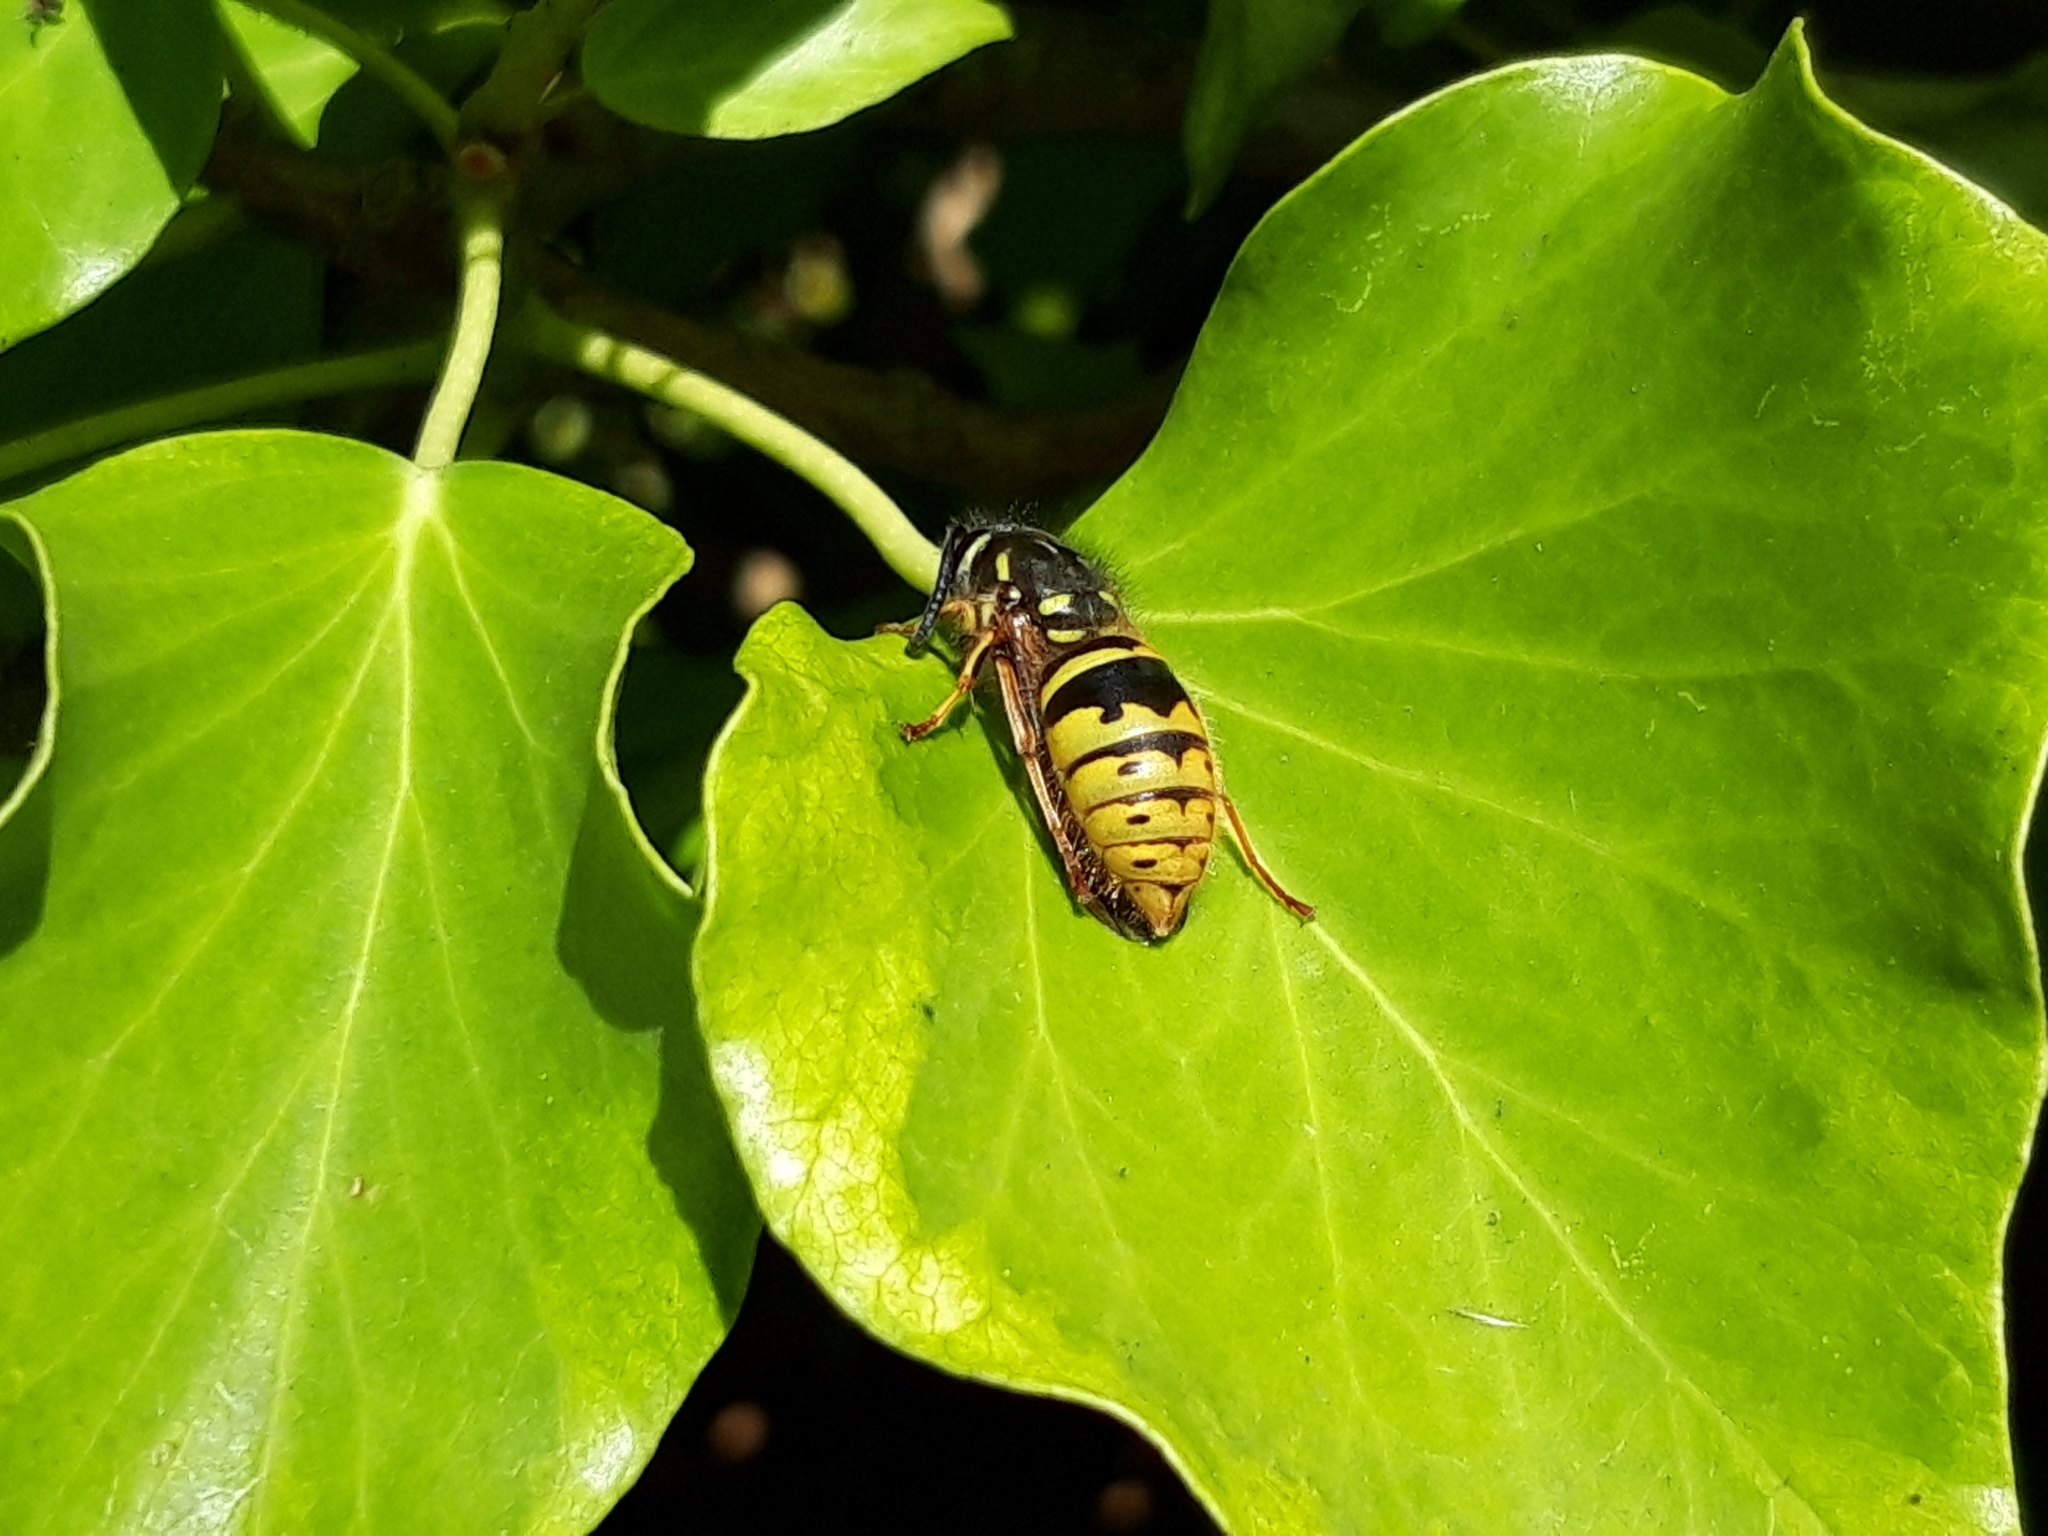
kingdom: Animalia
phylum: Arthropoda
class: Insecta
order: Hymenoptera
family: Vespidae
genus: Vespula
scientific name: Vespula vulgaris
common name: Common wasp
